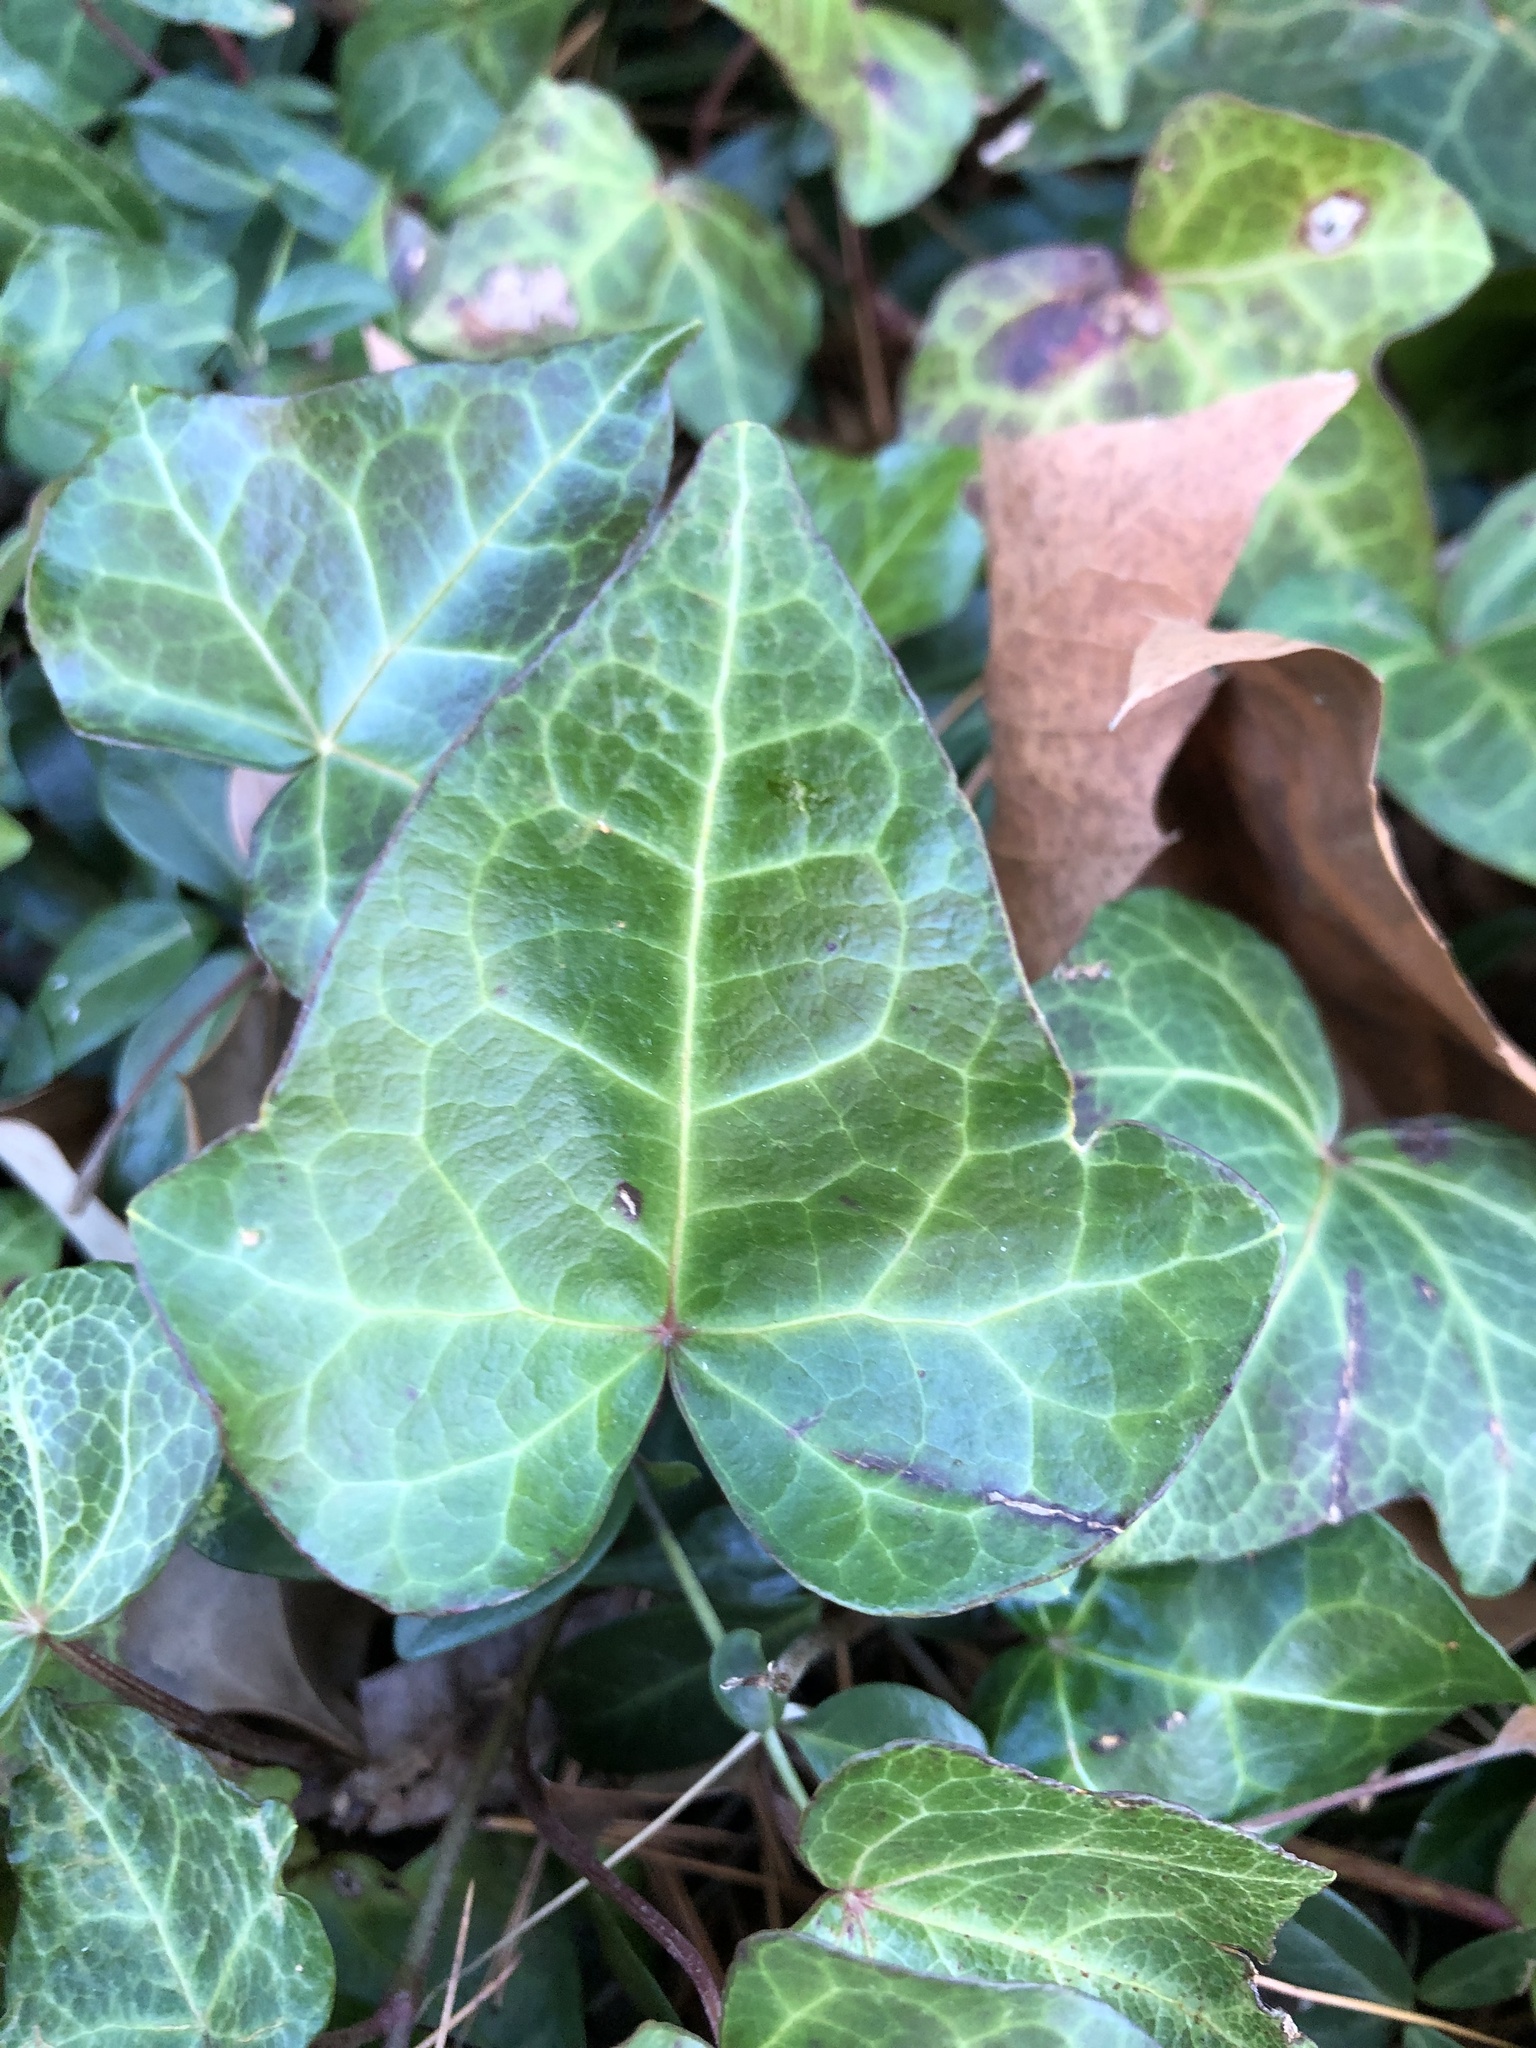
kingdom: Plantae
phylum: Tracheophyta
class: Magnoliopsida
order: Apiales
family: Araliaceae
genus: Hedera
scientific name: Hedera helix
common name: Ivy
